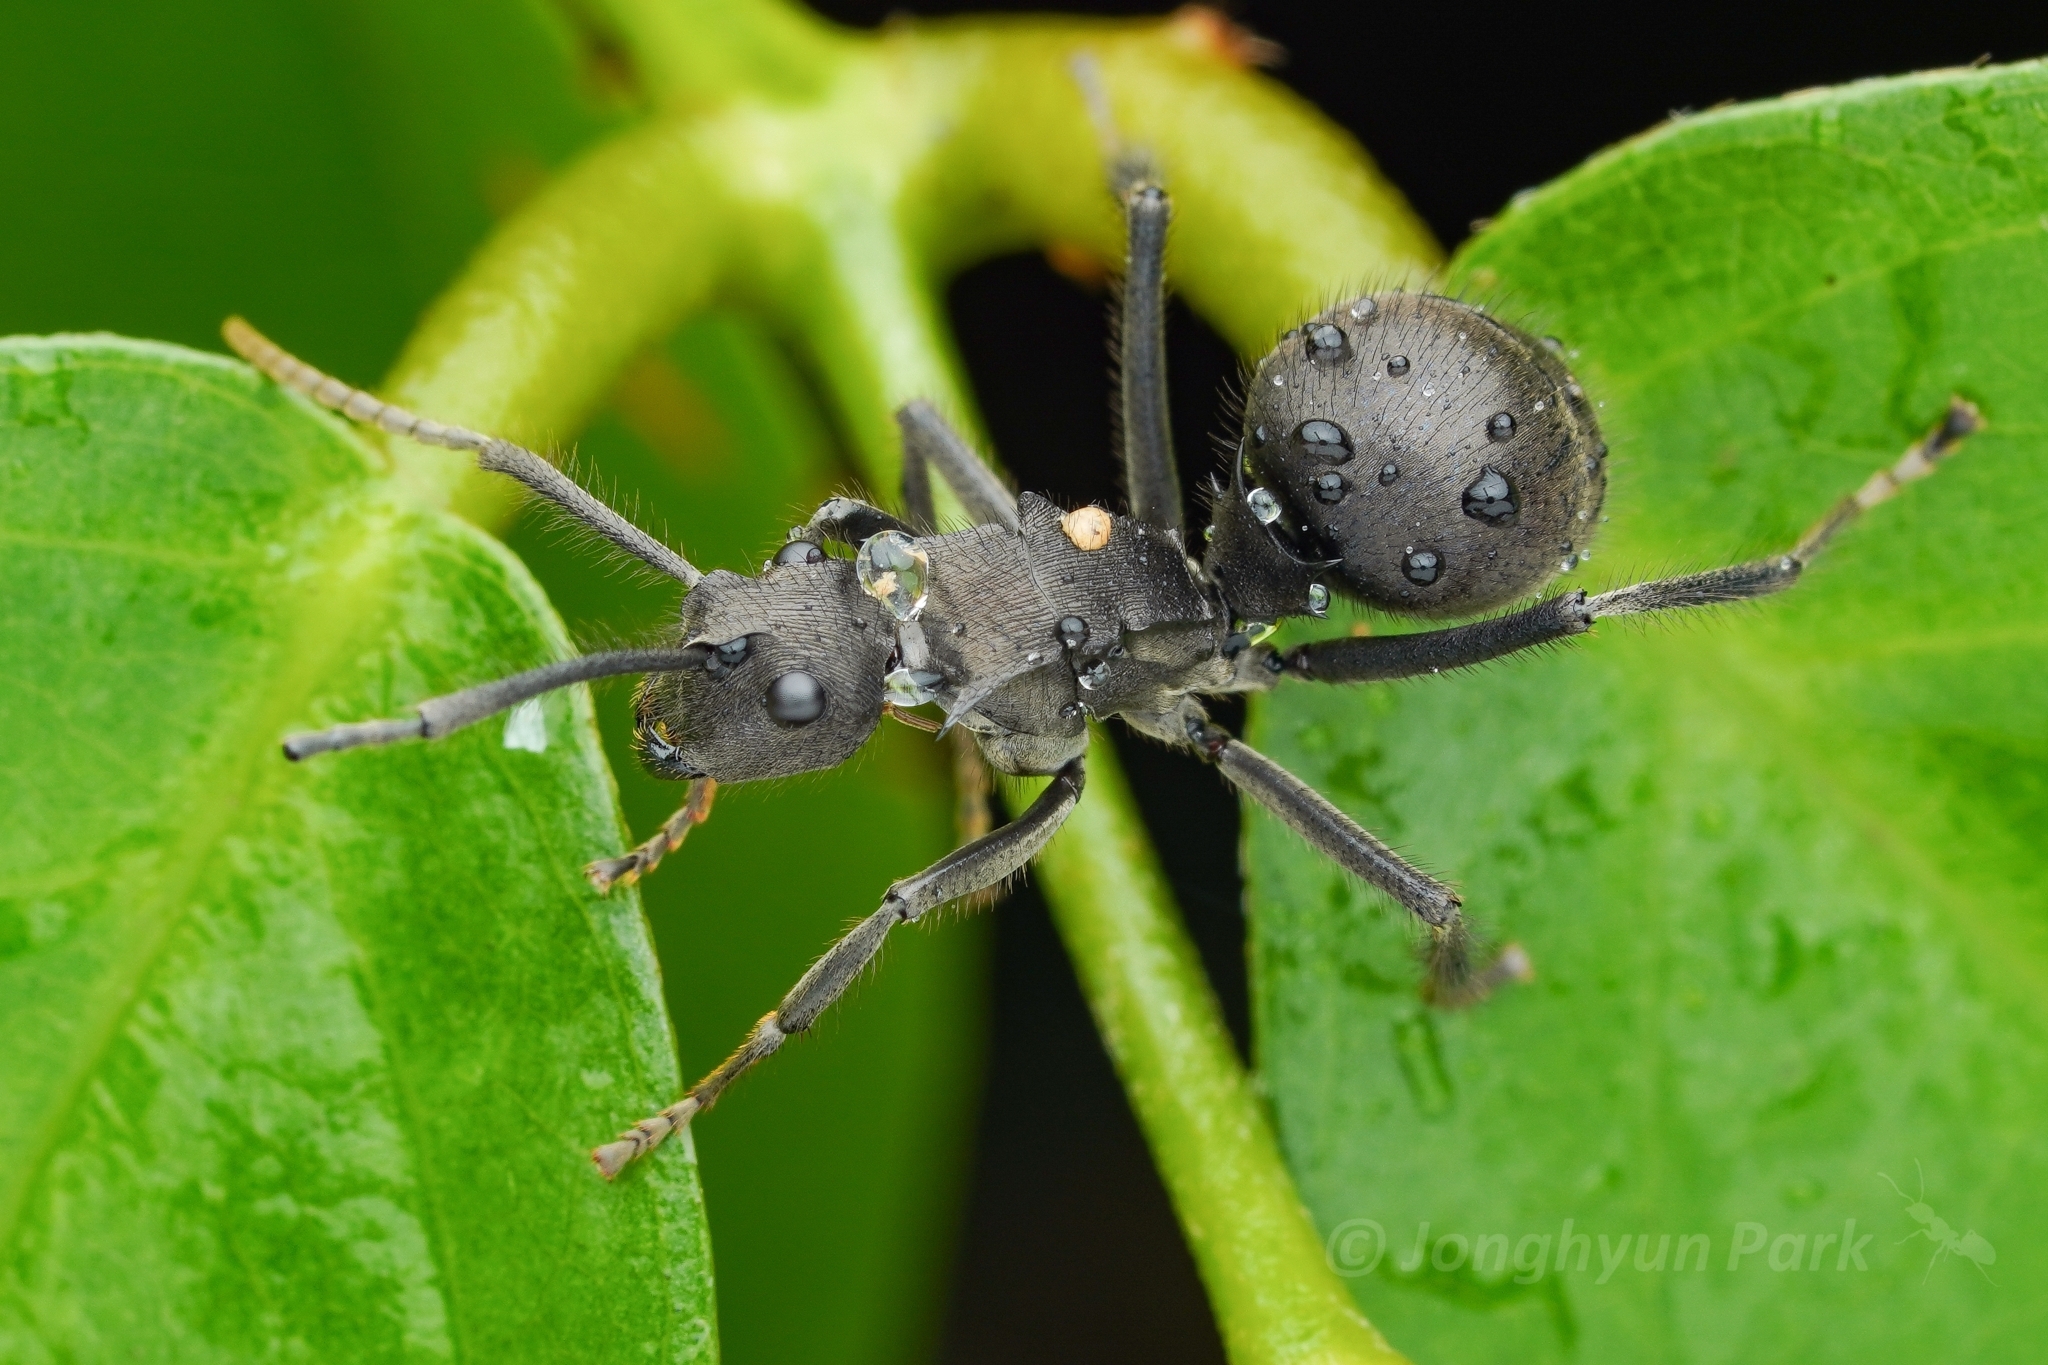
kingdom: Animalia
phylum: Arthropoda
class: Insecta
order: Hymenoptera
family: Formicidae
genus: Polyrhachis
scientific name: Polyrhachis sculpturata
